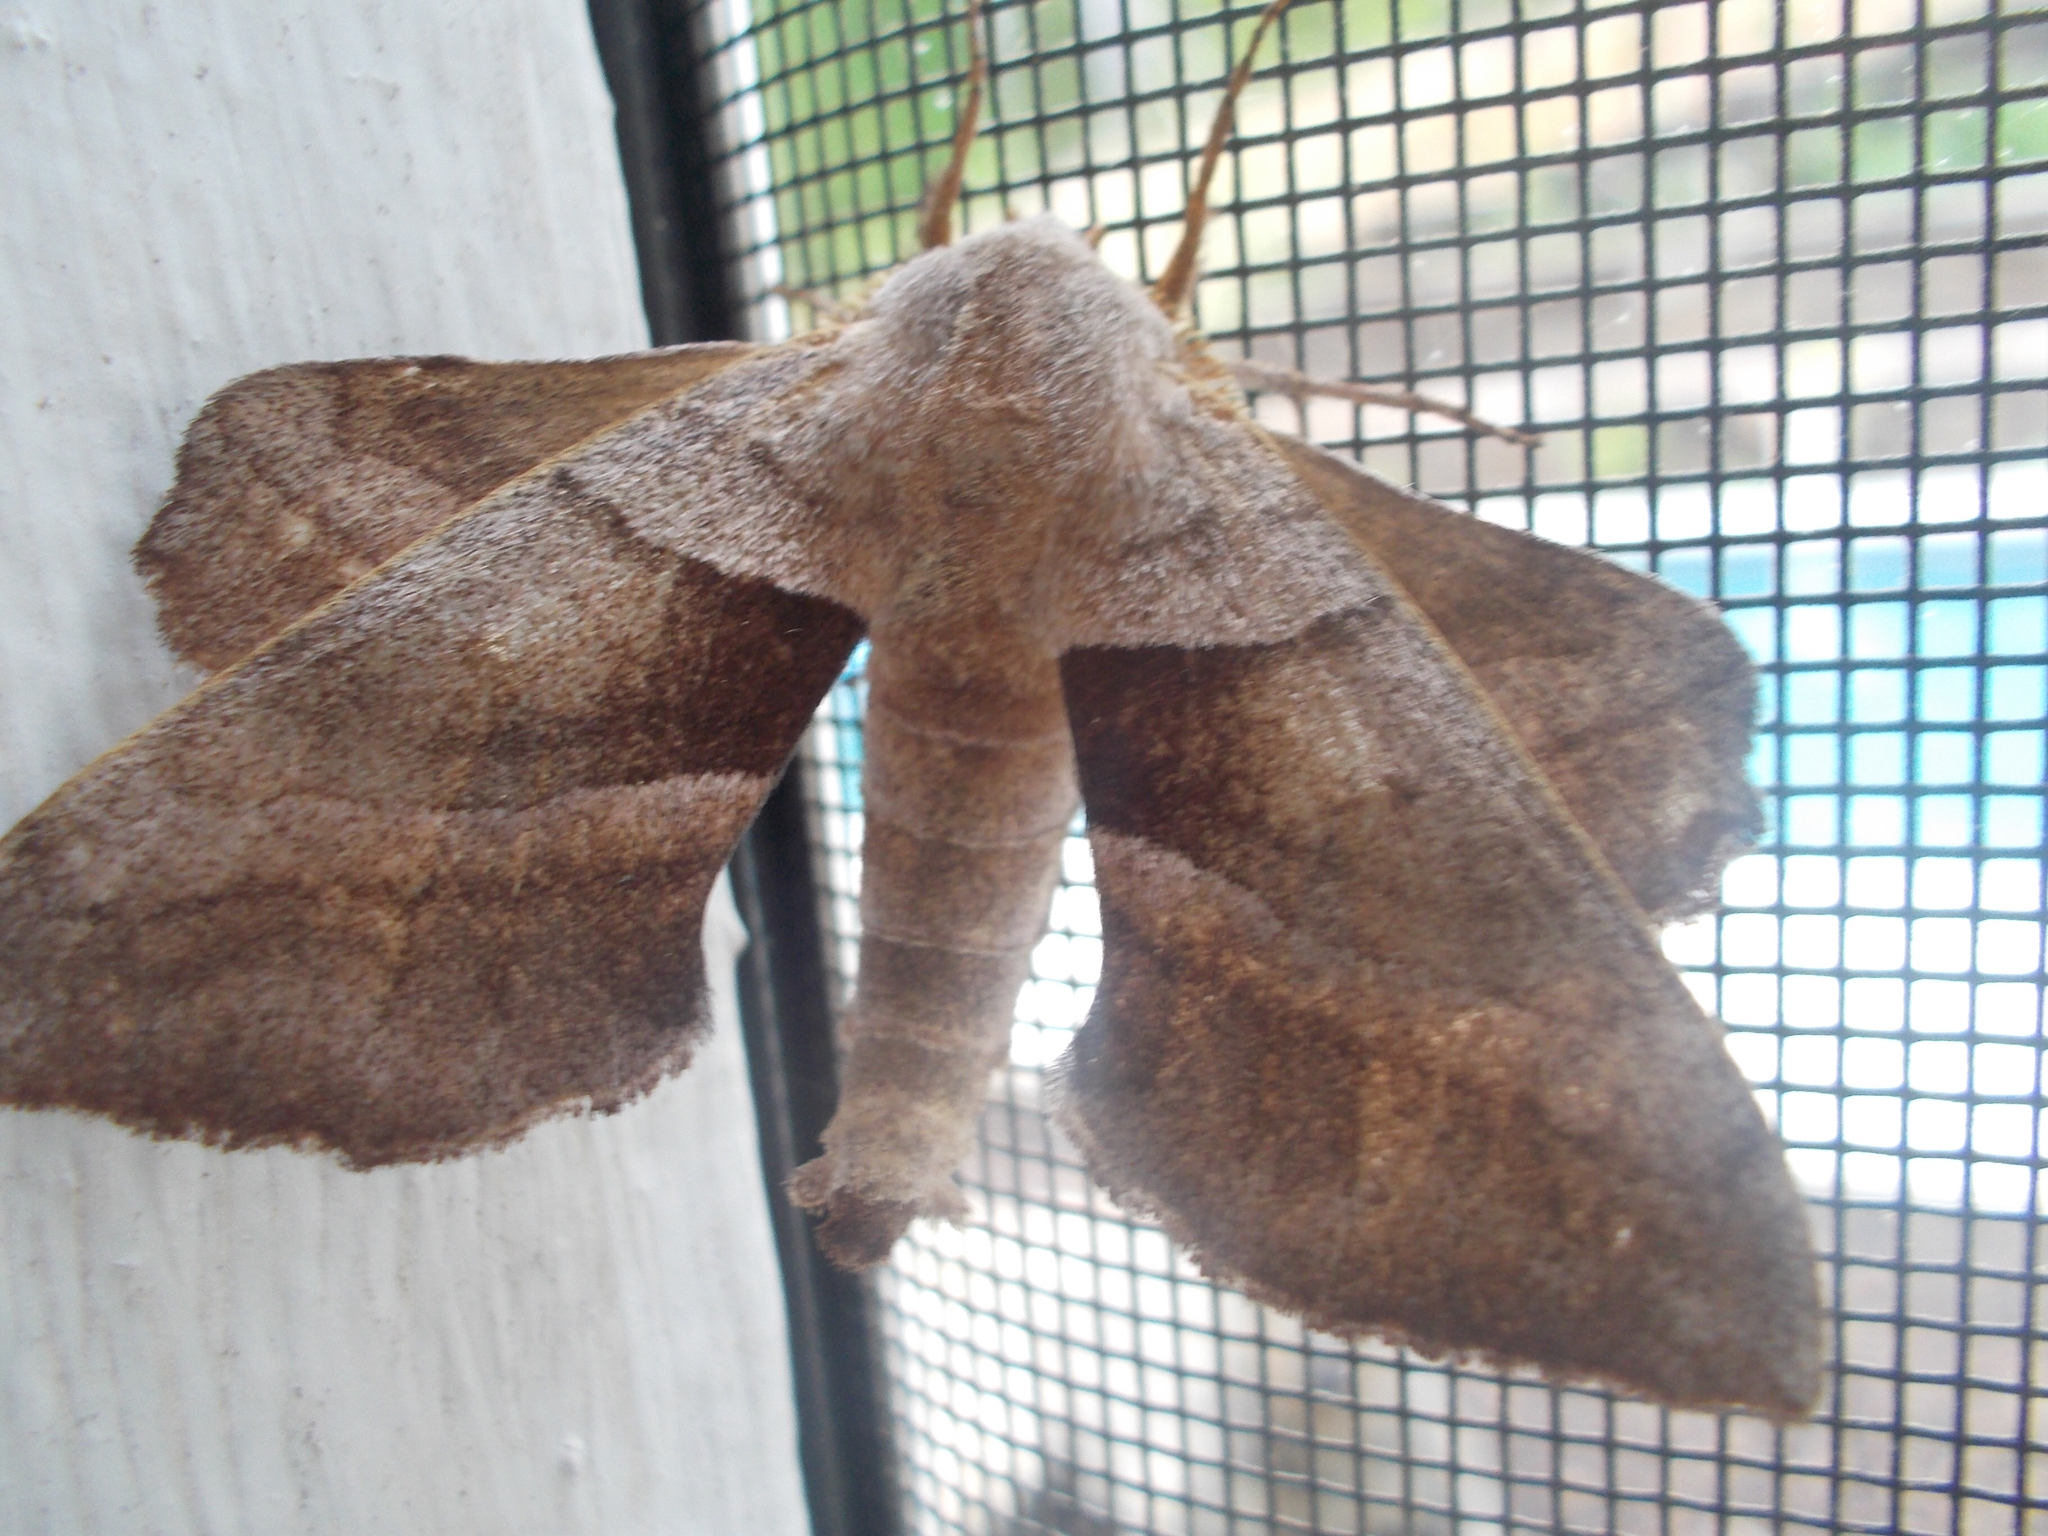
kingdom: Animalia
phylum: Arthropoda
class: Insecta
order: Lepidoptera
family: Sphingidae
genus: Amorpha
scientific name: Amorpha juglandis
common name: Walnut sphinx
